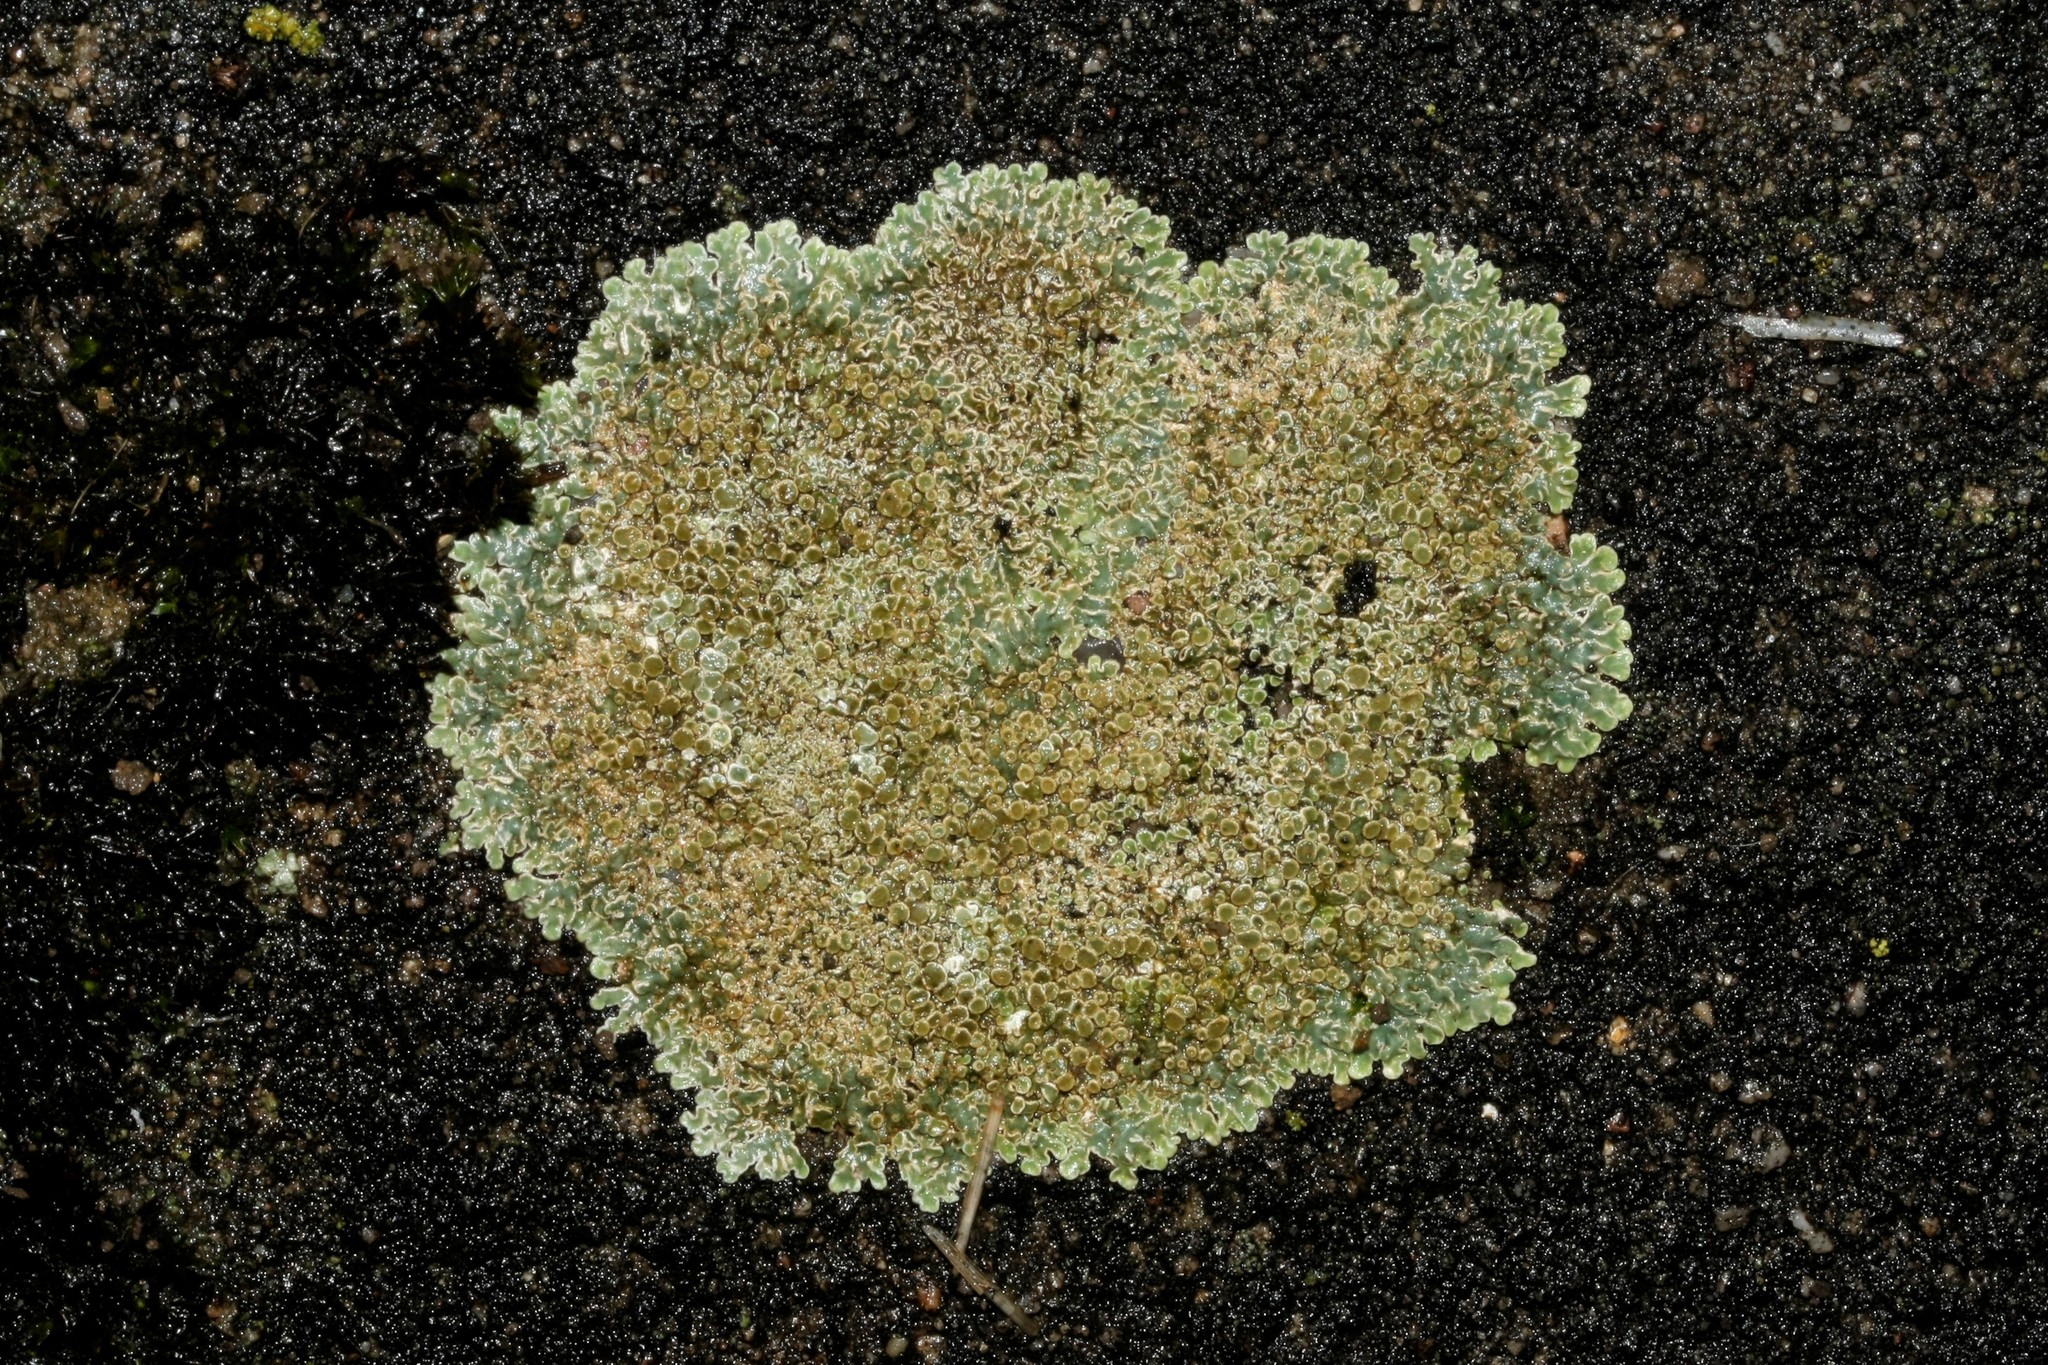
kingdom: Fungi
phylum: Ascomycota
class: Lecanoromycetes
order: Lecanorales
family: Lecanoraceae
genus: Protoparmeliopsis
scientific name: Protoparmeliopsis muralis
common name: Stonewall rim lichen
